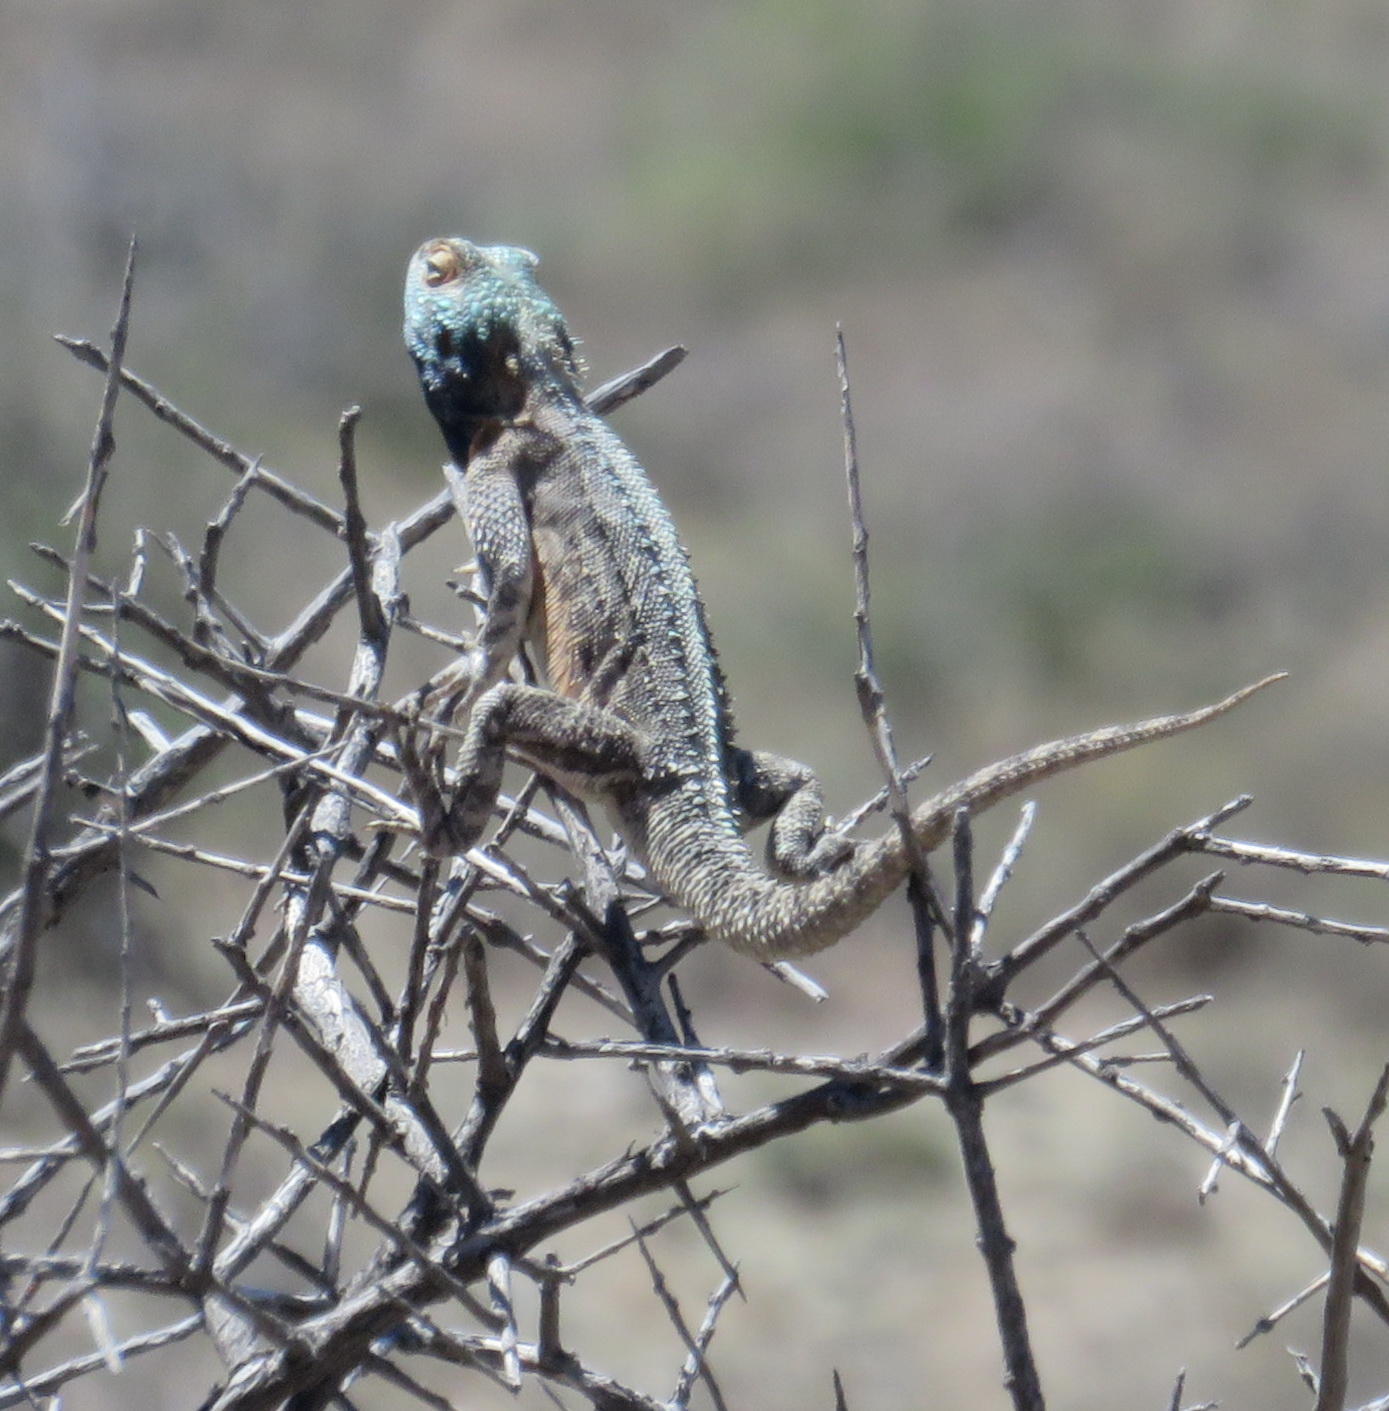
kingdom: Animalia
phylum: Chordata
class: Squamata
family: Agamidae
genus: Agama
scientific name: Agama aculeata
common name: Common ground agama
